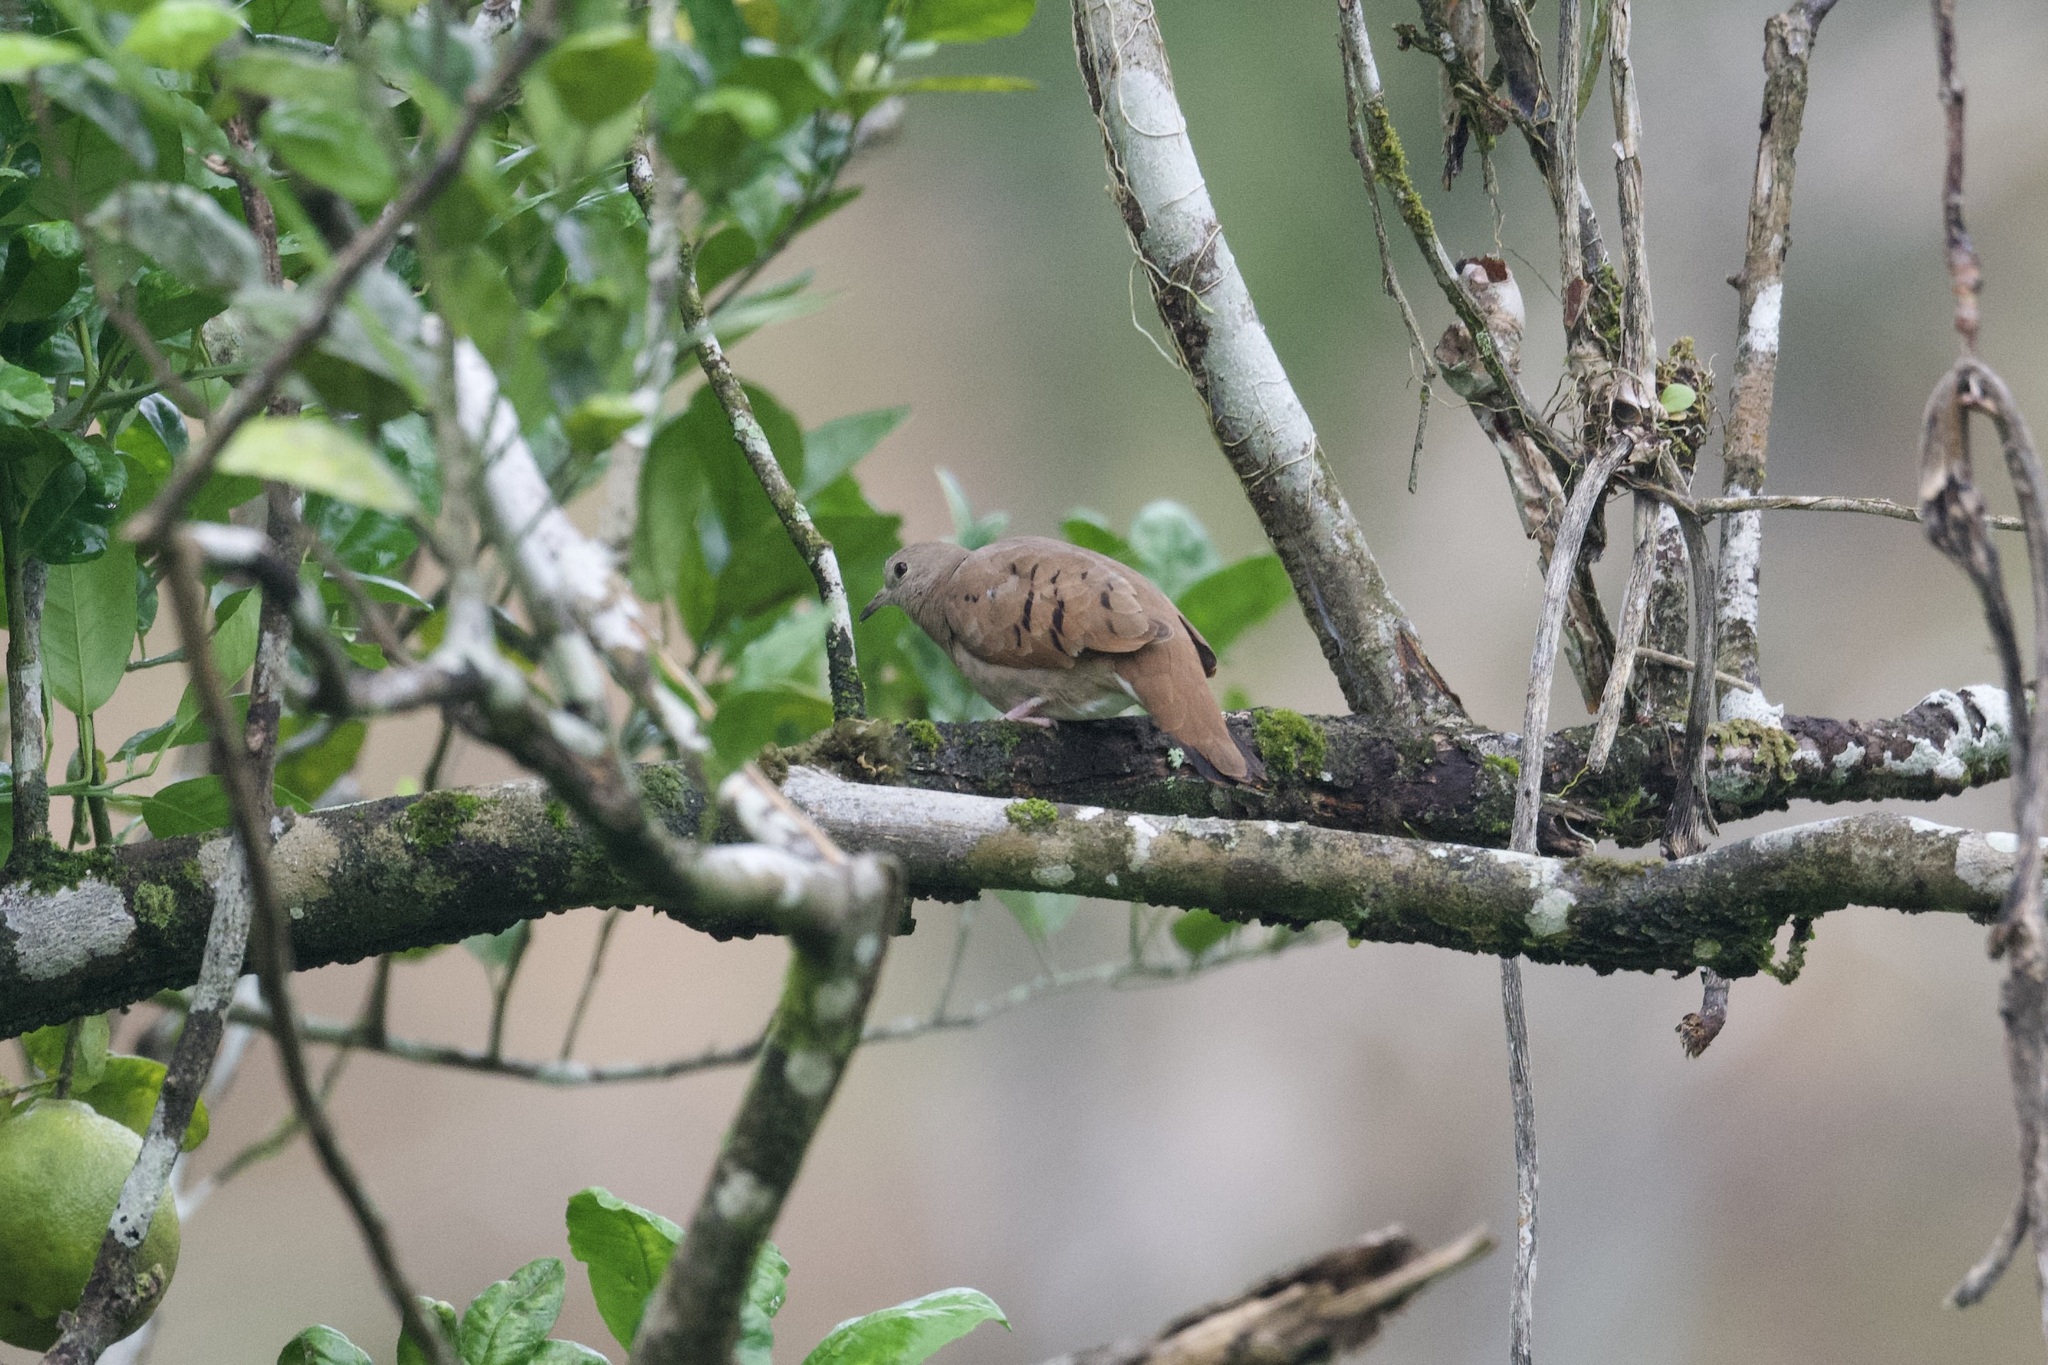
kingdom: Animalia
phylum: Chordata
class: Aves
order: Columbiformes
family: Columbidae
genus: Columbina
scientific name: Columbina talpacoti
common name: Ruddy ground dove
